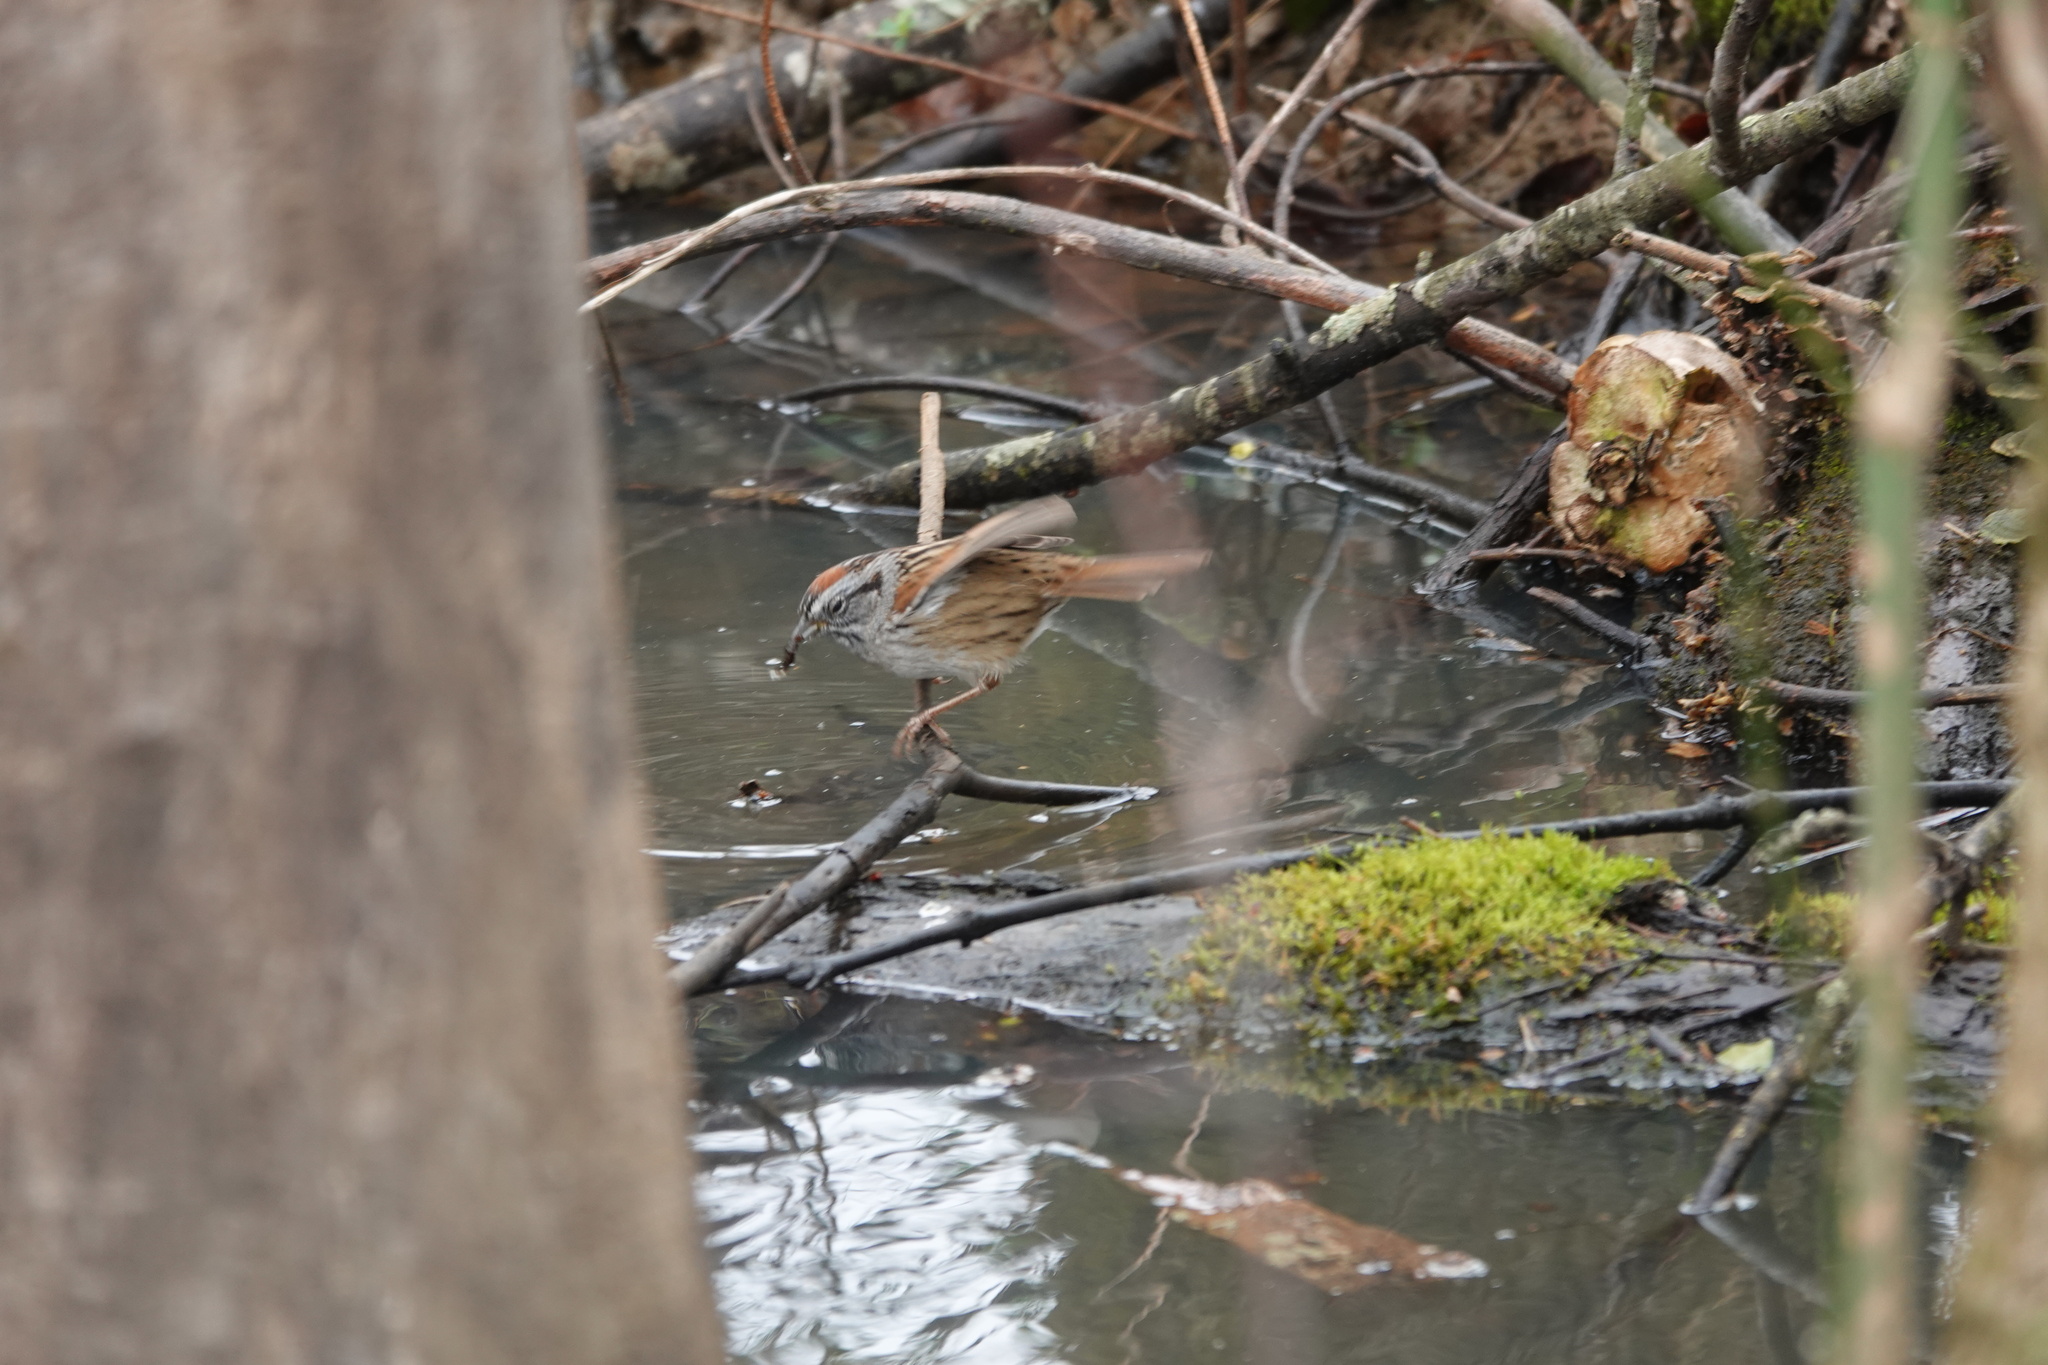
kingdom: Animalia
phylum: Chordata
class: Aves
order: Passeriformes
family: Passerellidae
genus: Melospiza
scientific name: Melospiza georgiana
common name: Swamp sparrow
